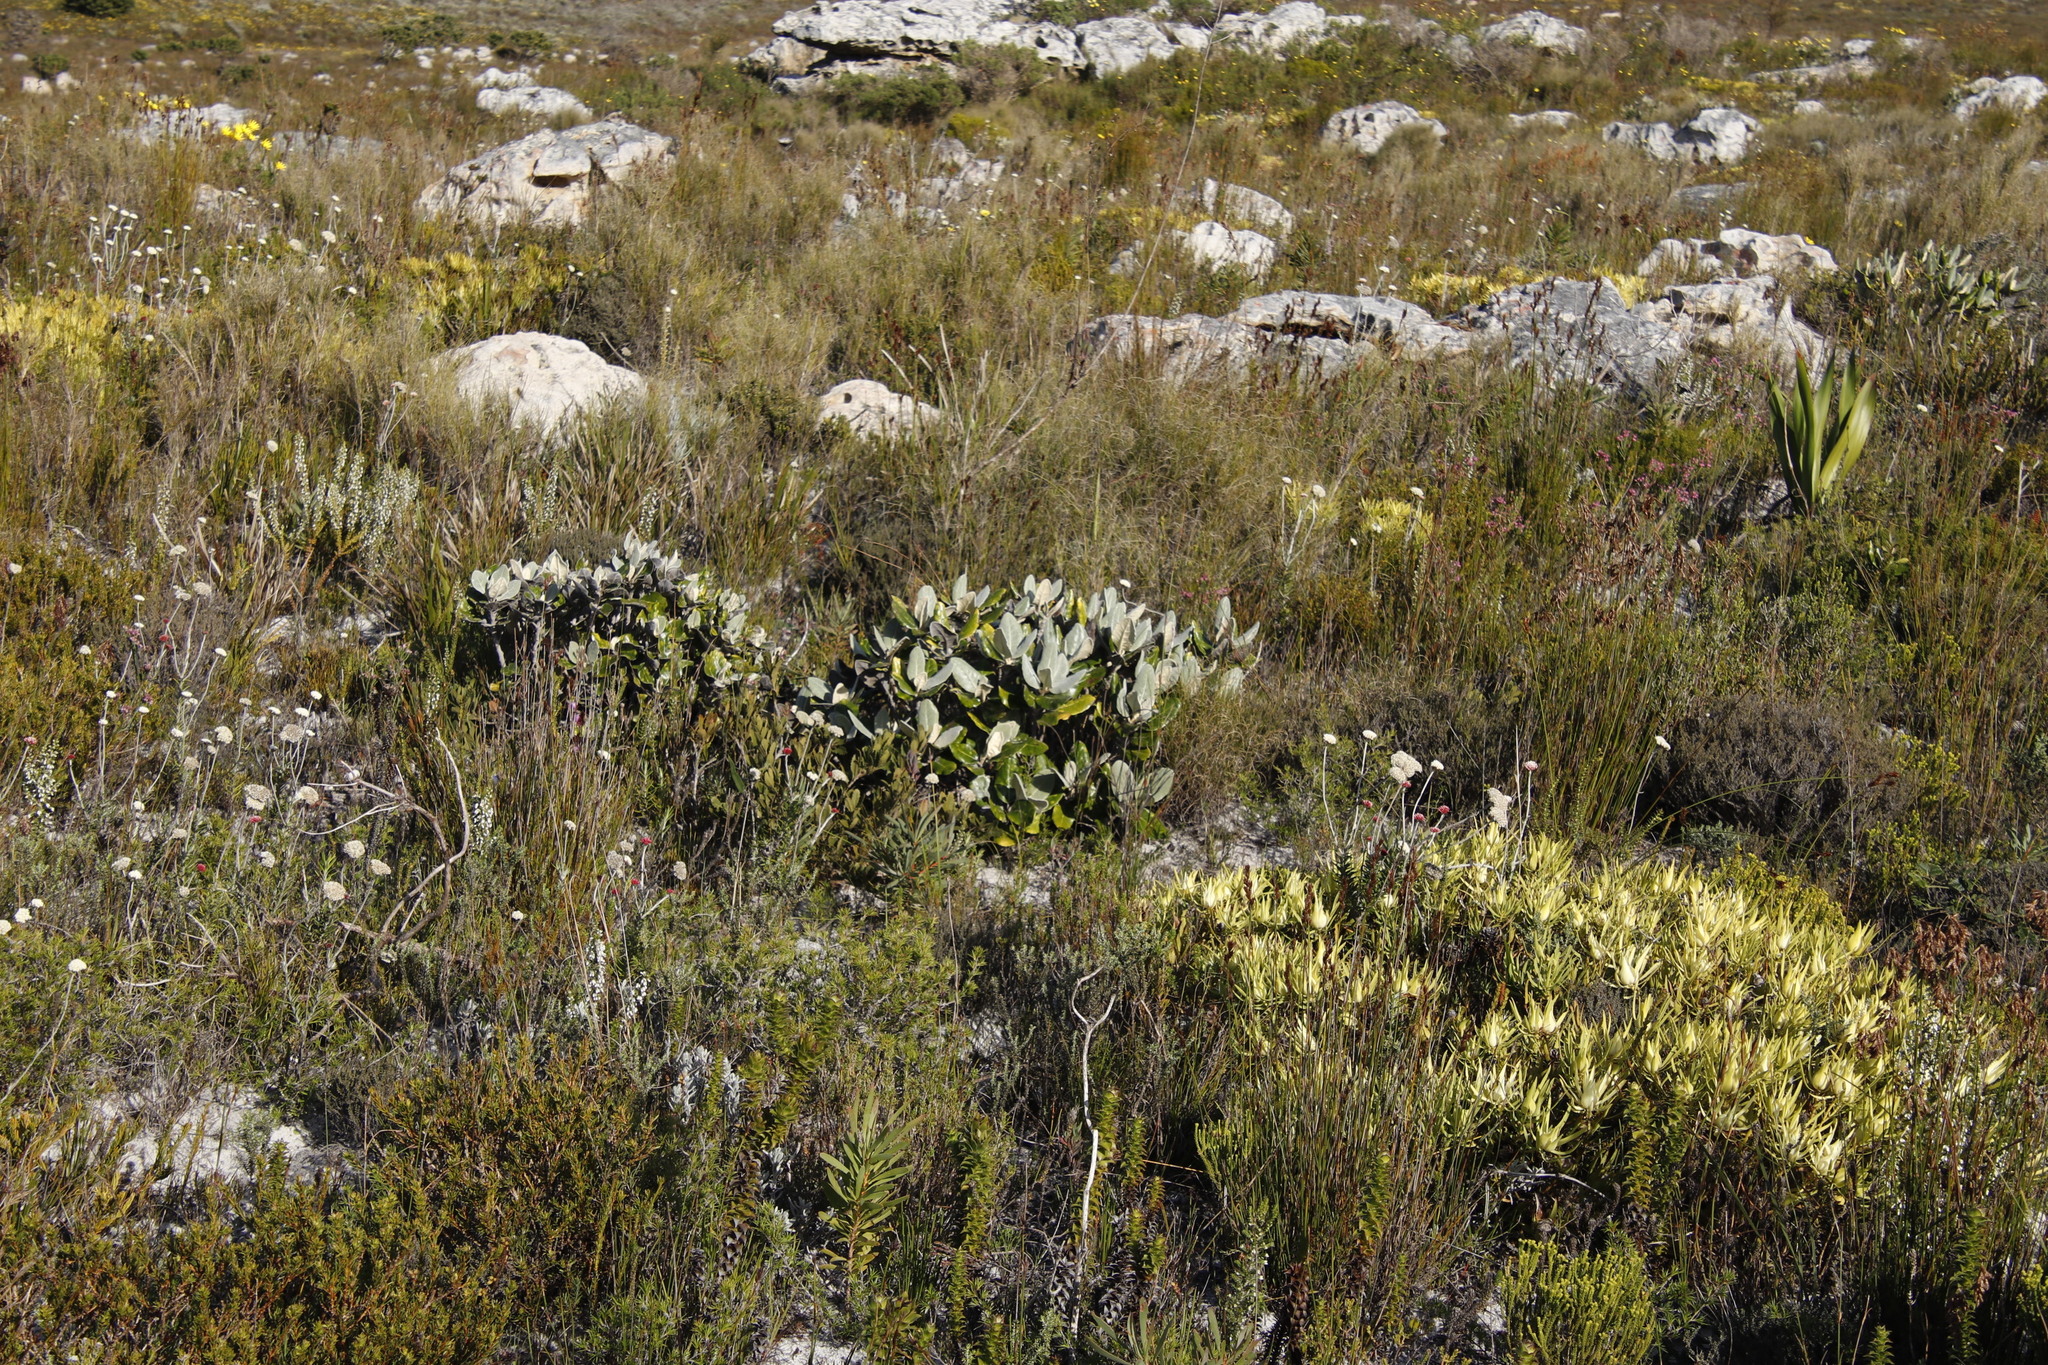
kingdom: Plantae
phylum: Tracheophyta
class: Magnoliopsida
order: Asterales
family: Asteraceae
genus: Capelio
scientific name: Capelio tabularis
